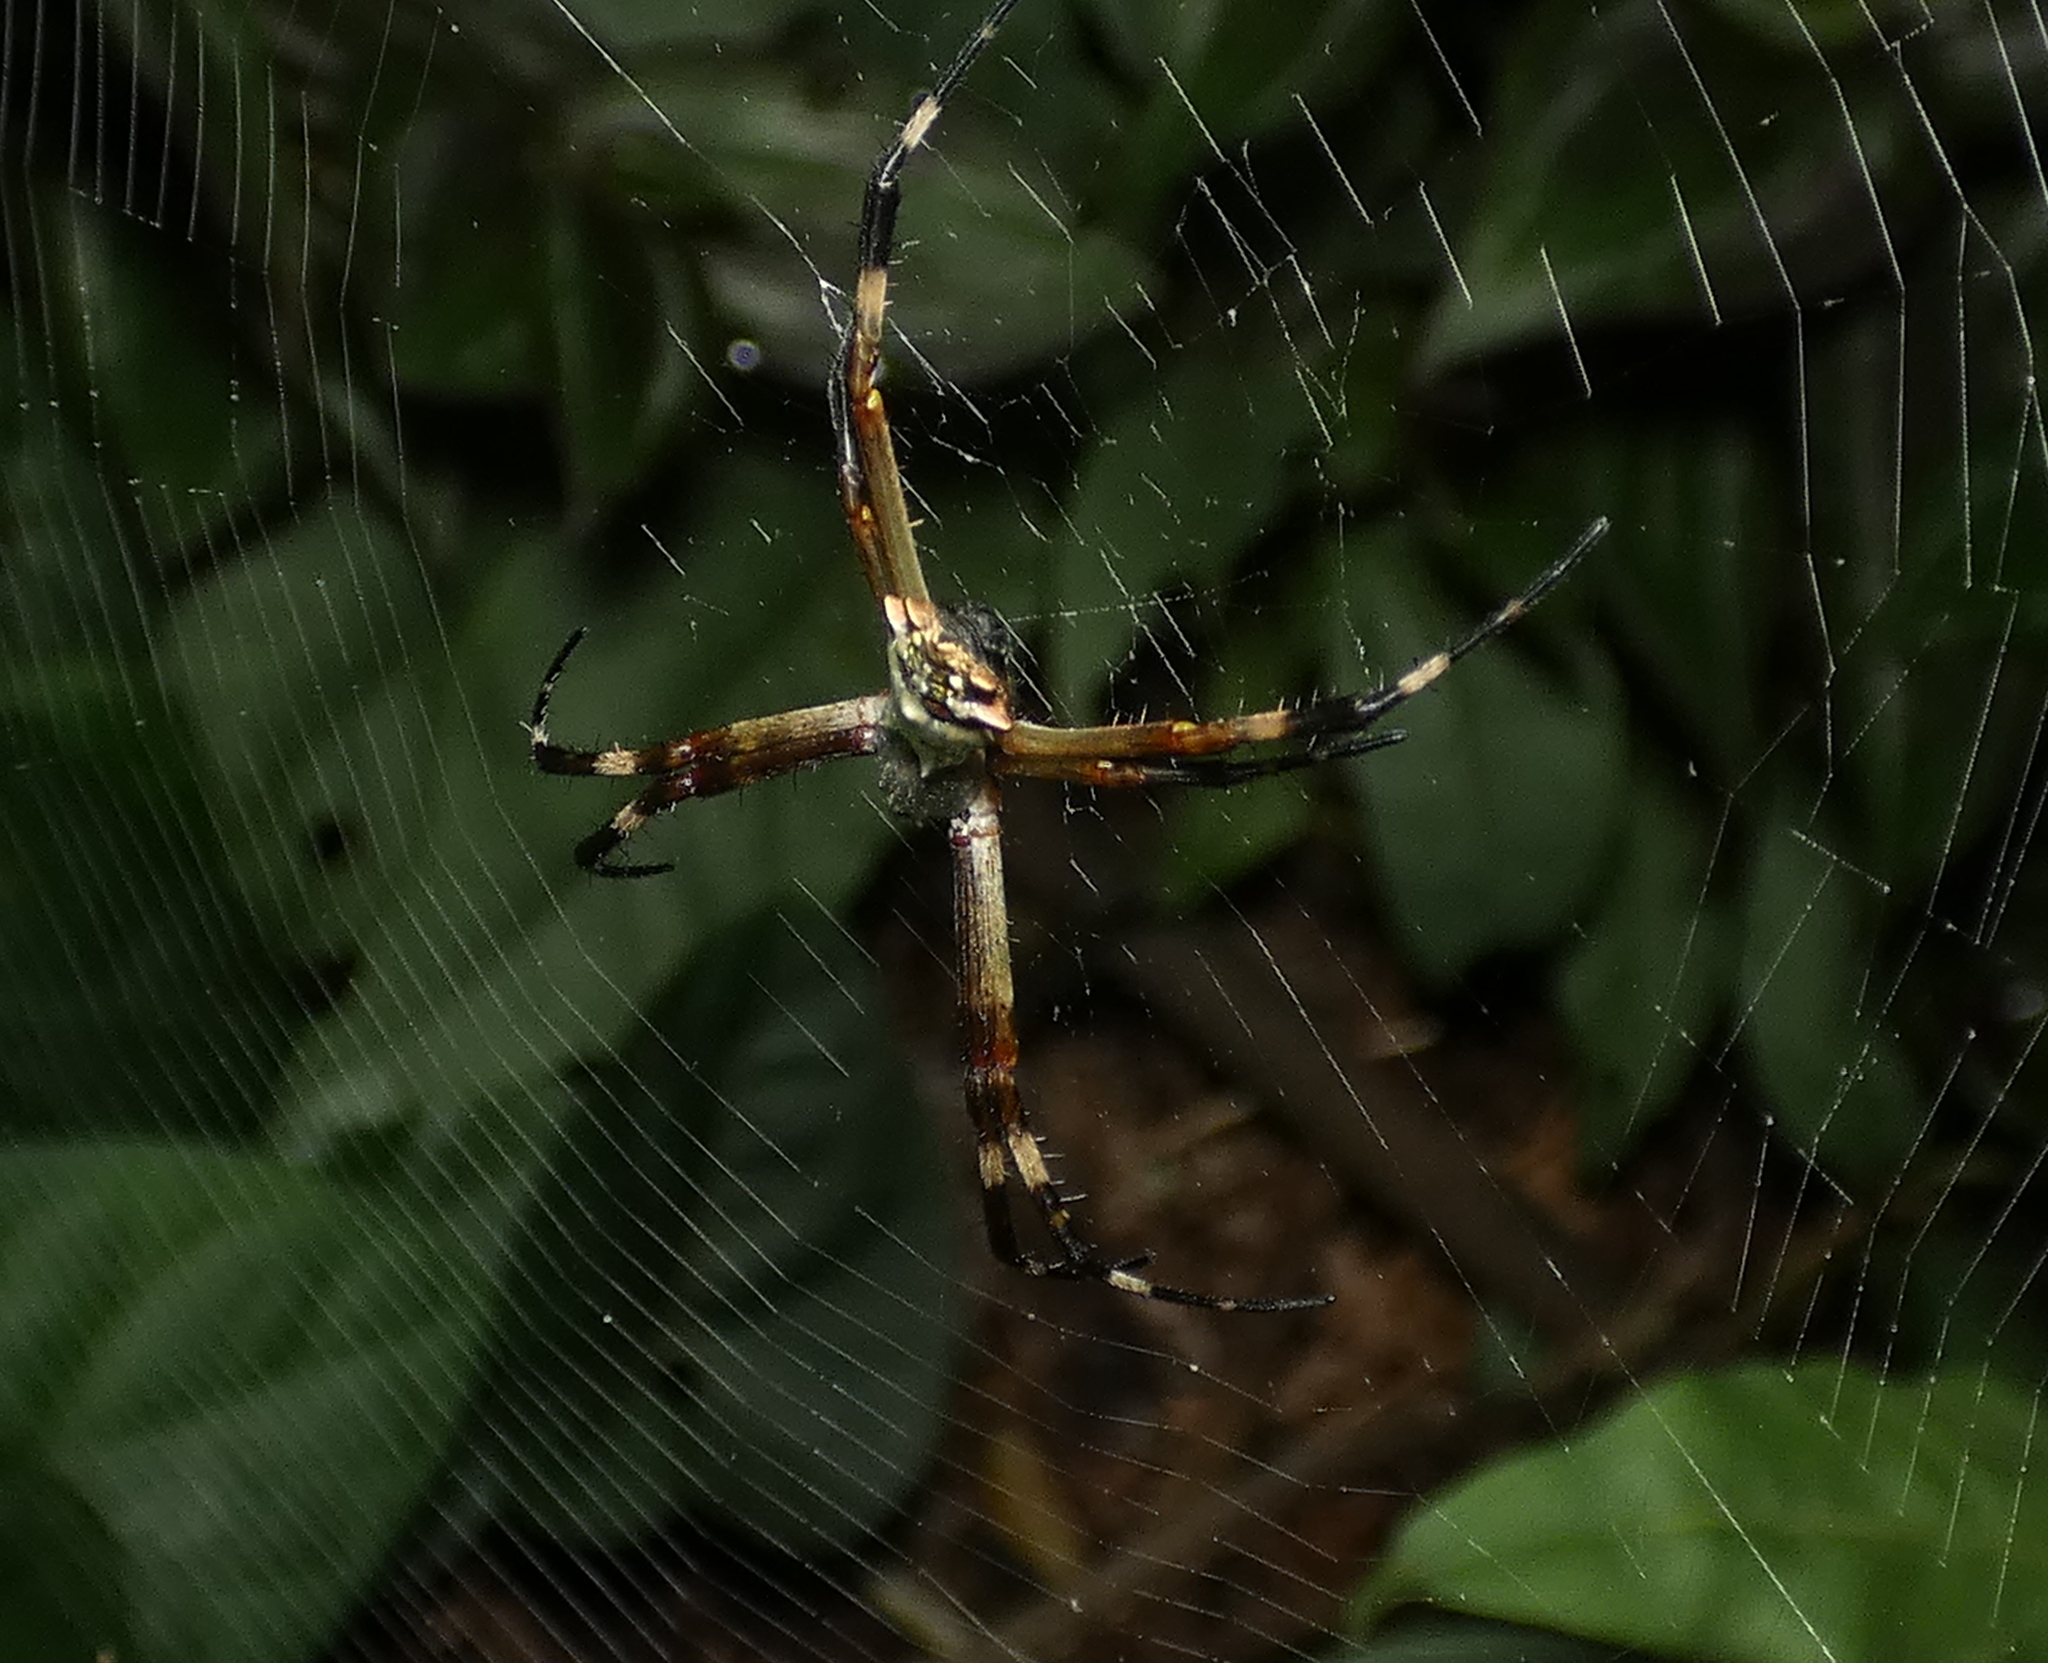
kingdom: Animalia
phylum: Arthropoda
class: Arachnida
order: Araneae
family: Araneidae
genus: Argiope
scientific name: Argiope argentata
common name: Orb weavers
